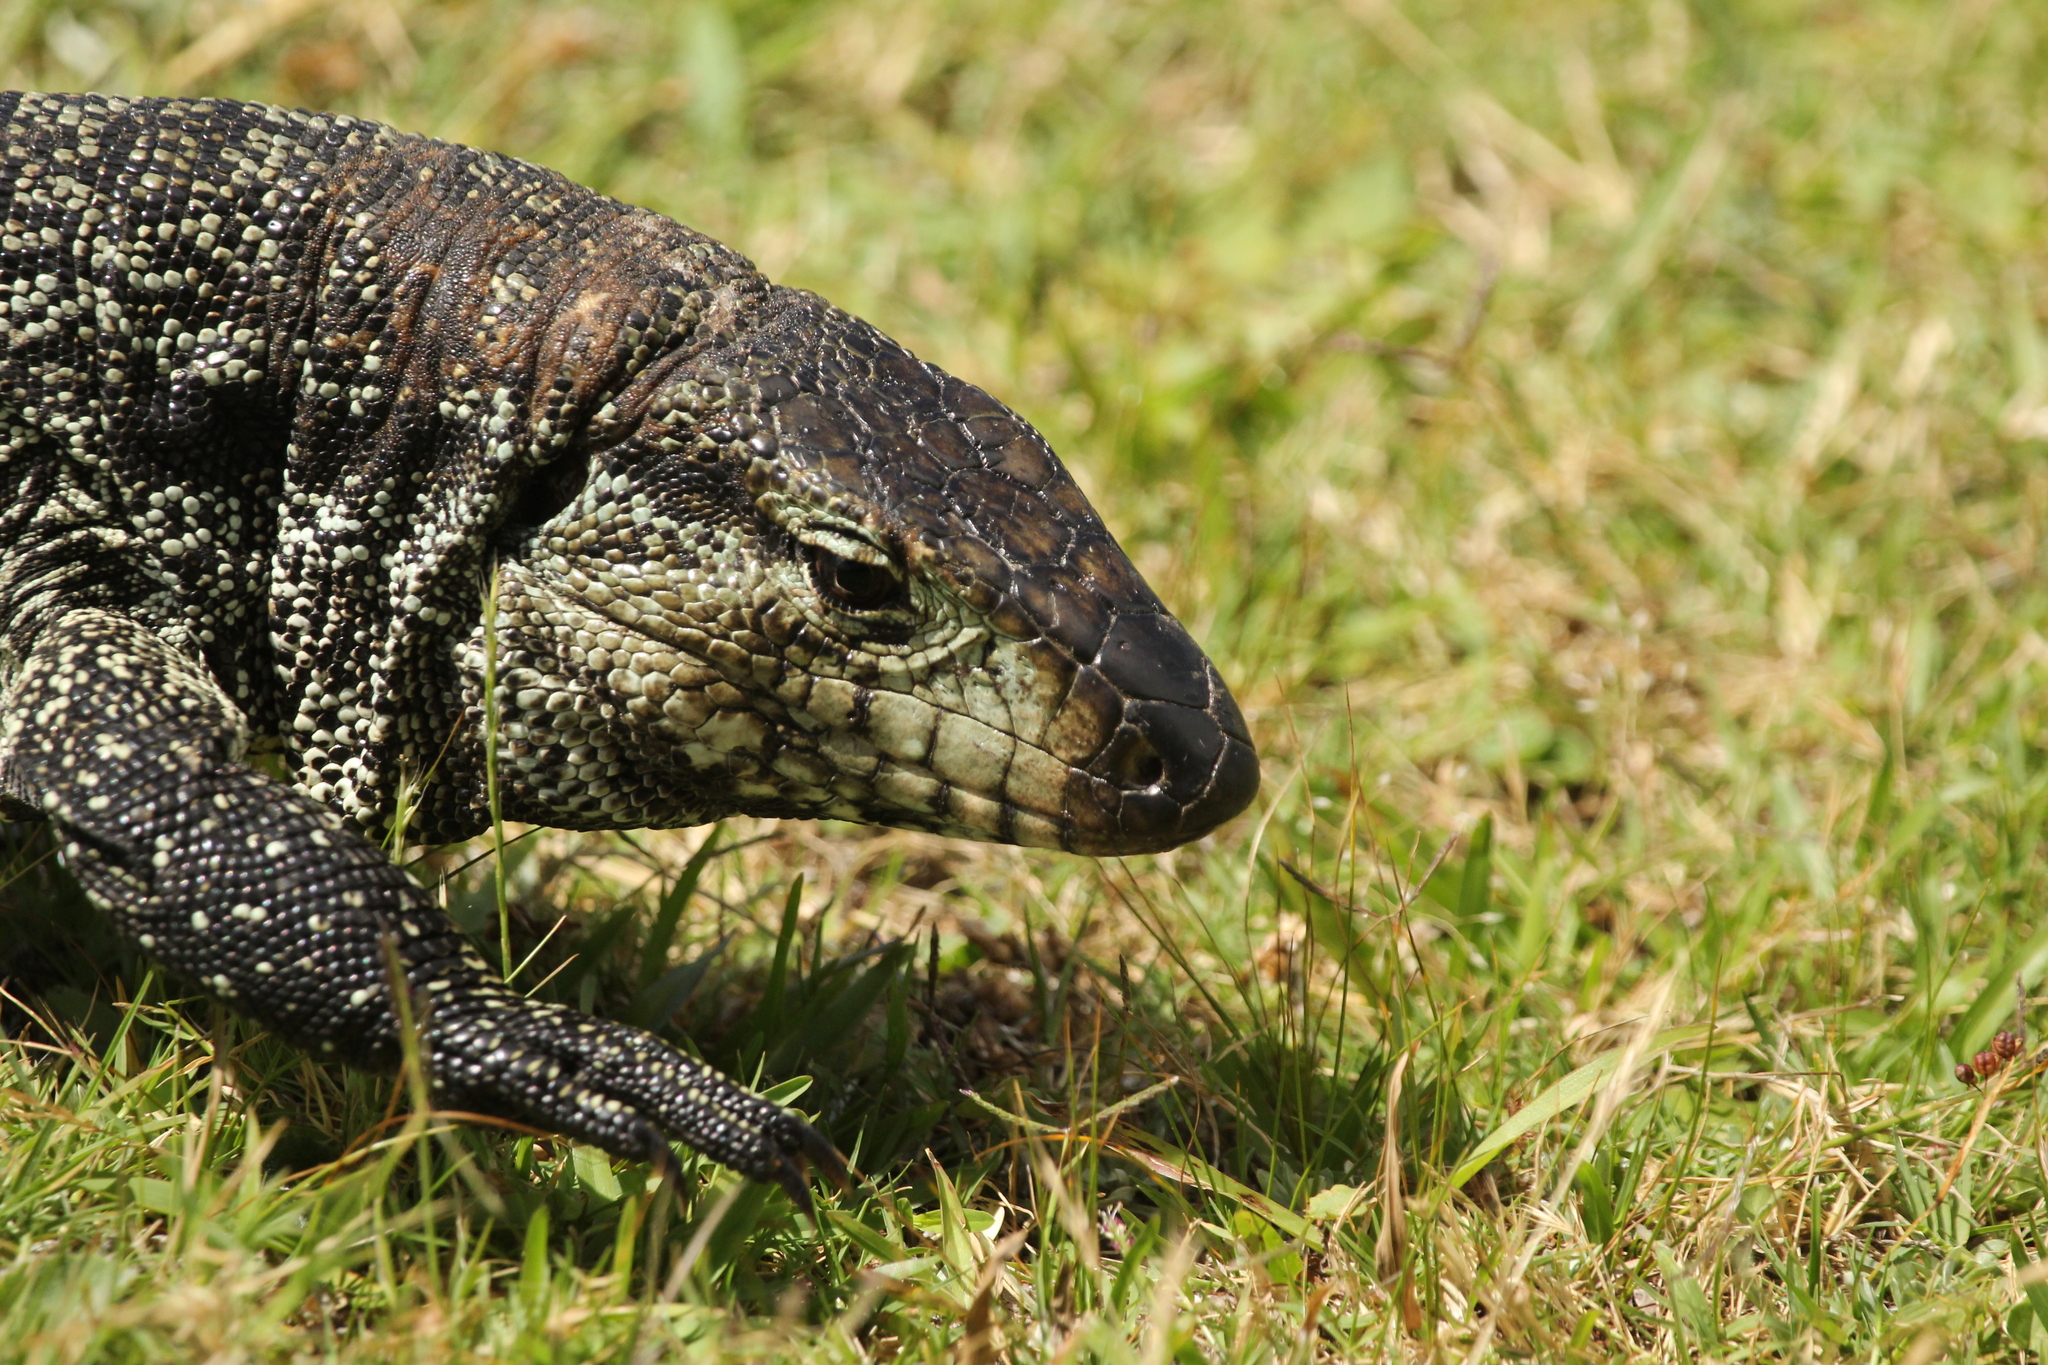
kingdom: Animalia
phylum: Chordata
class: Squamata
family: Teiidae
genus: Salvator
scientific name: Salvator merianae
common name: Argentine black and white tegu
